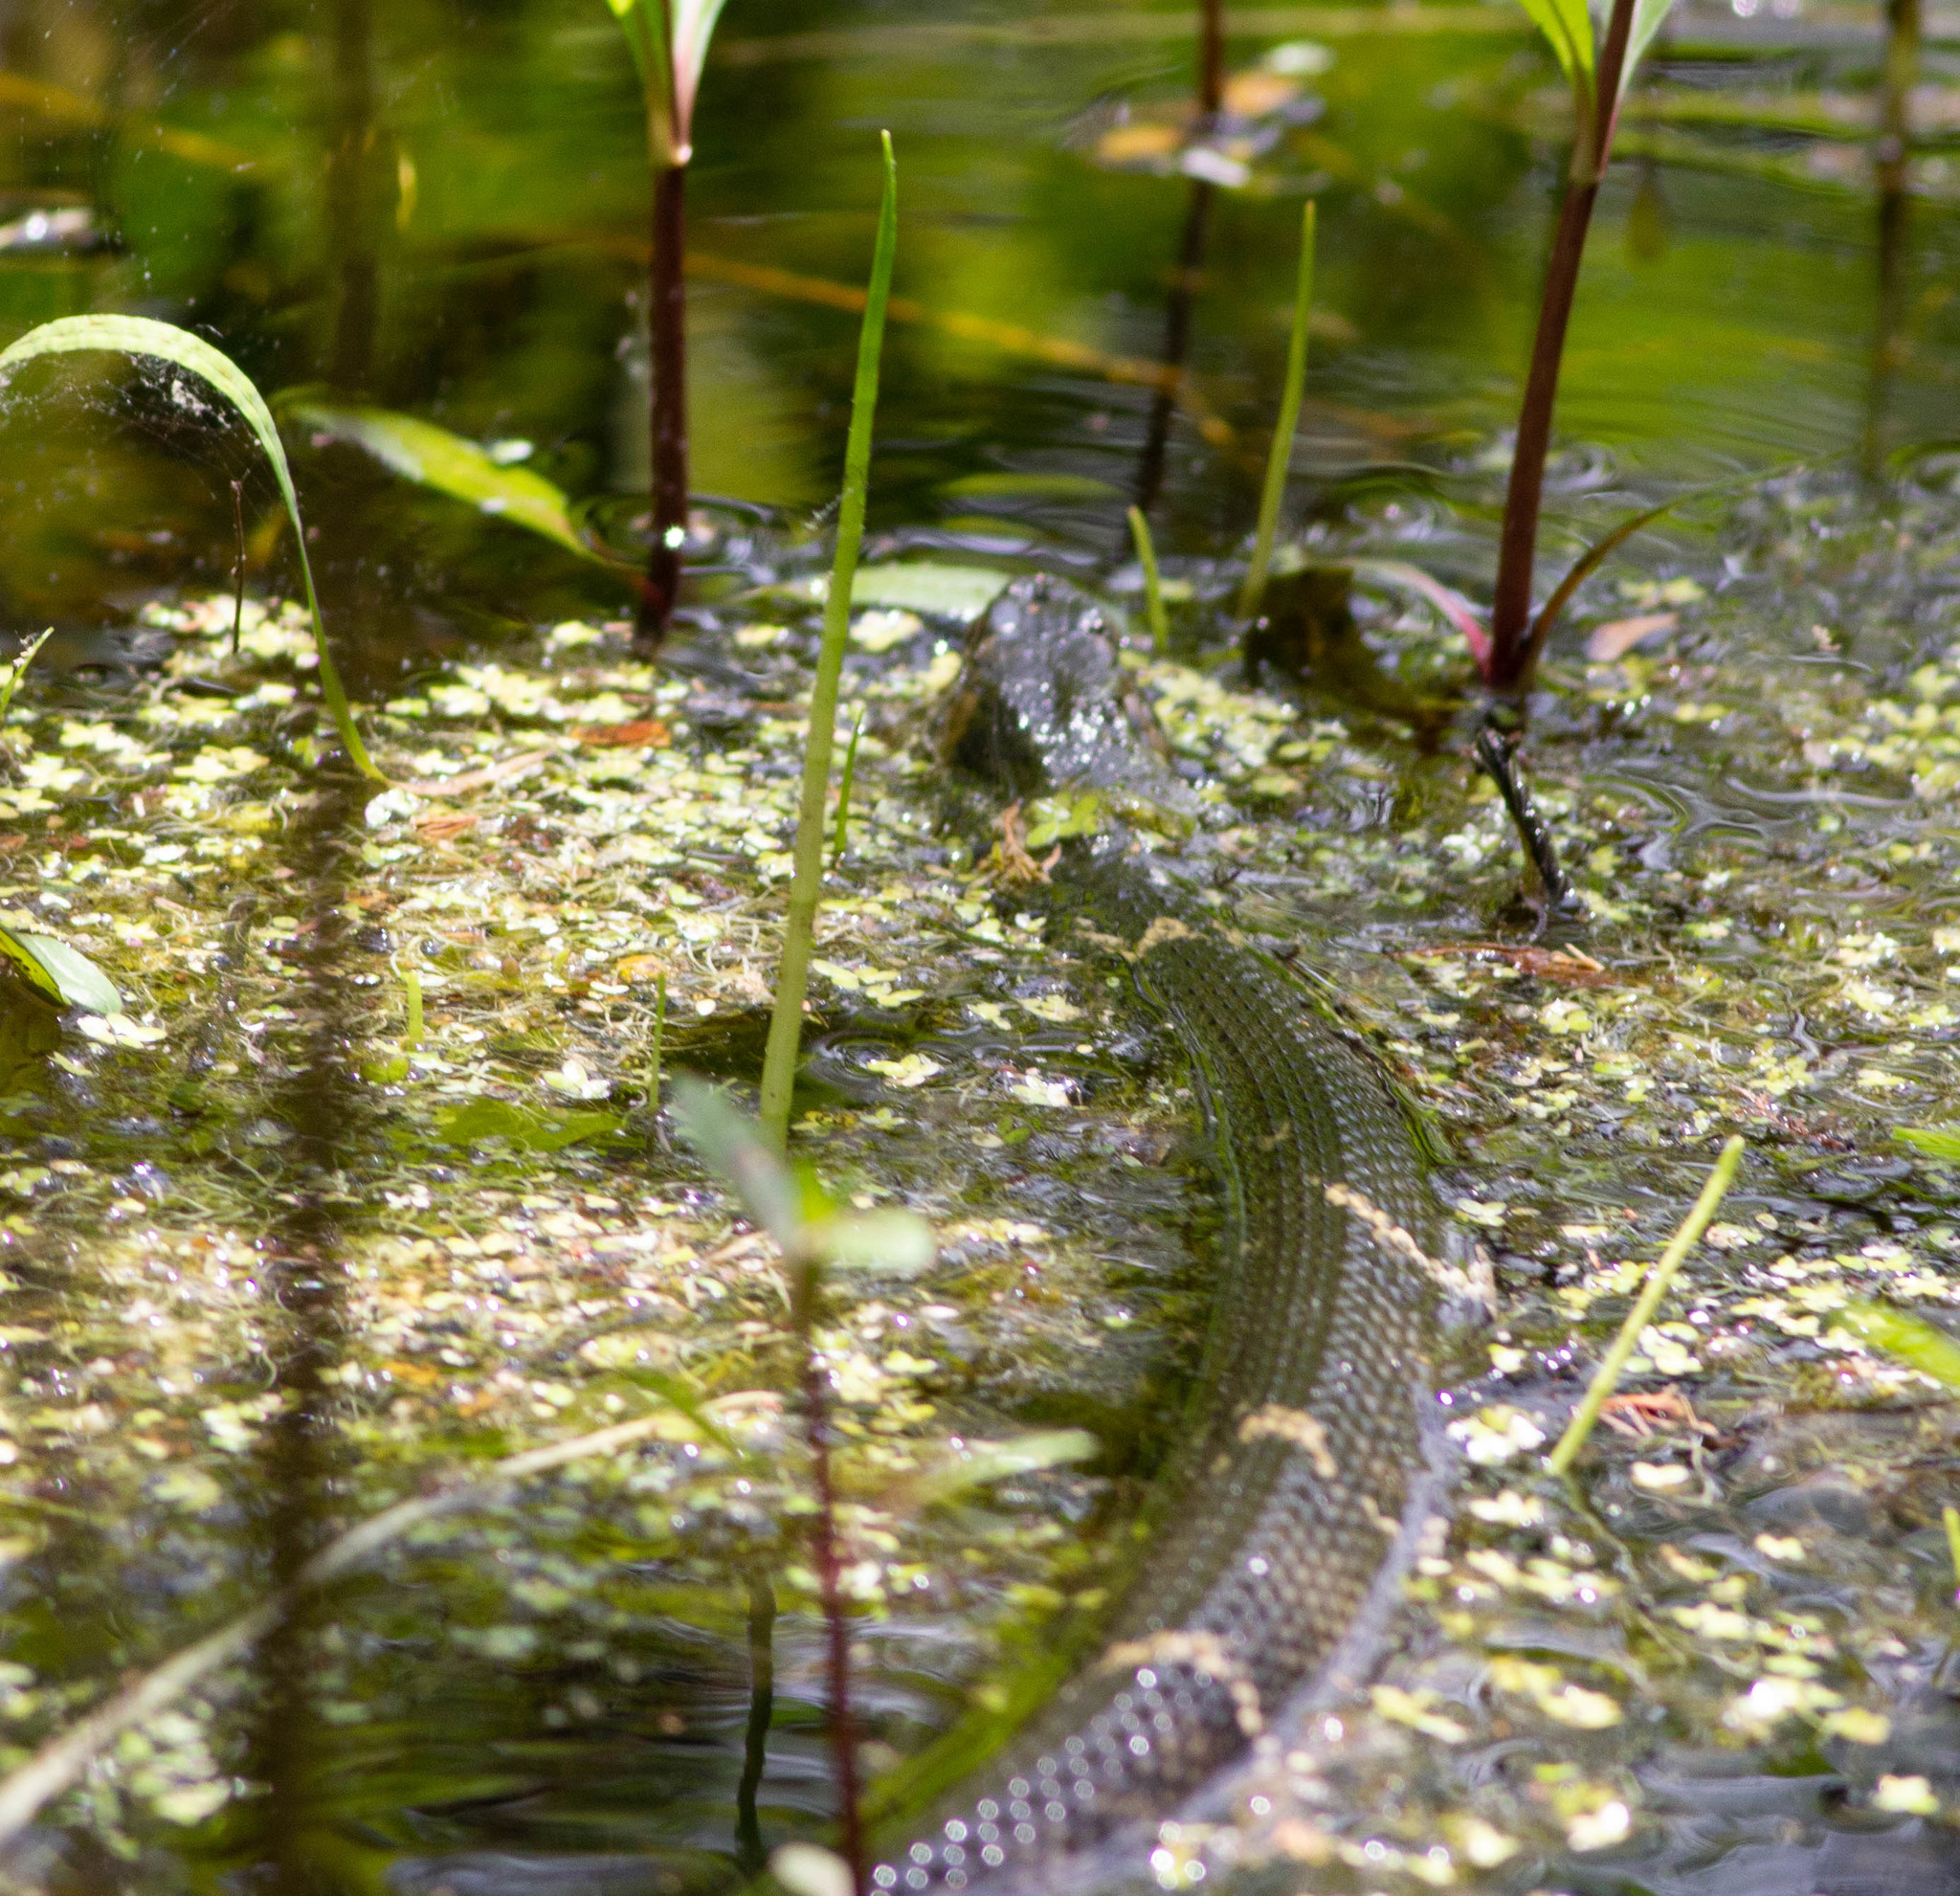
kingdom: Animalia
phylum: Chordata
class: Squamata
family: Colubridae
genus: Nerodia
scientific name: Nerodia fasciata
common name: Southern water snake
